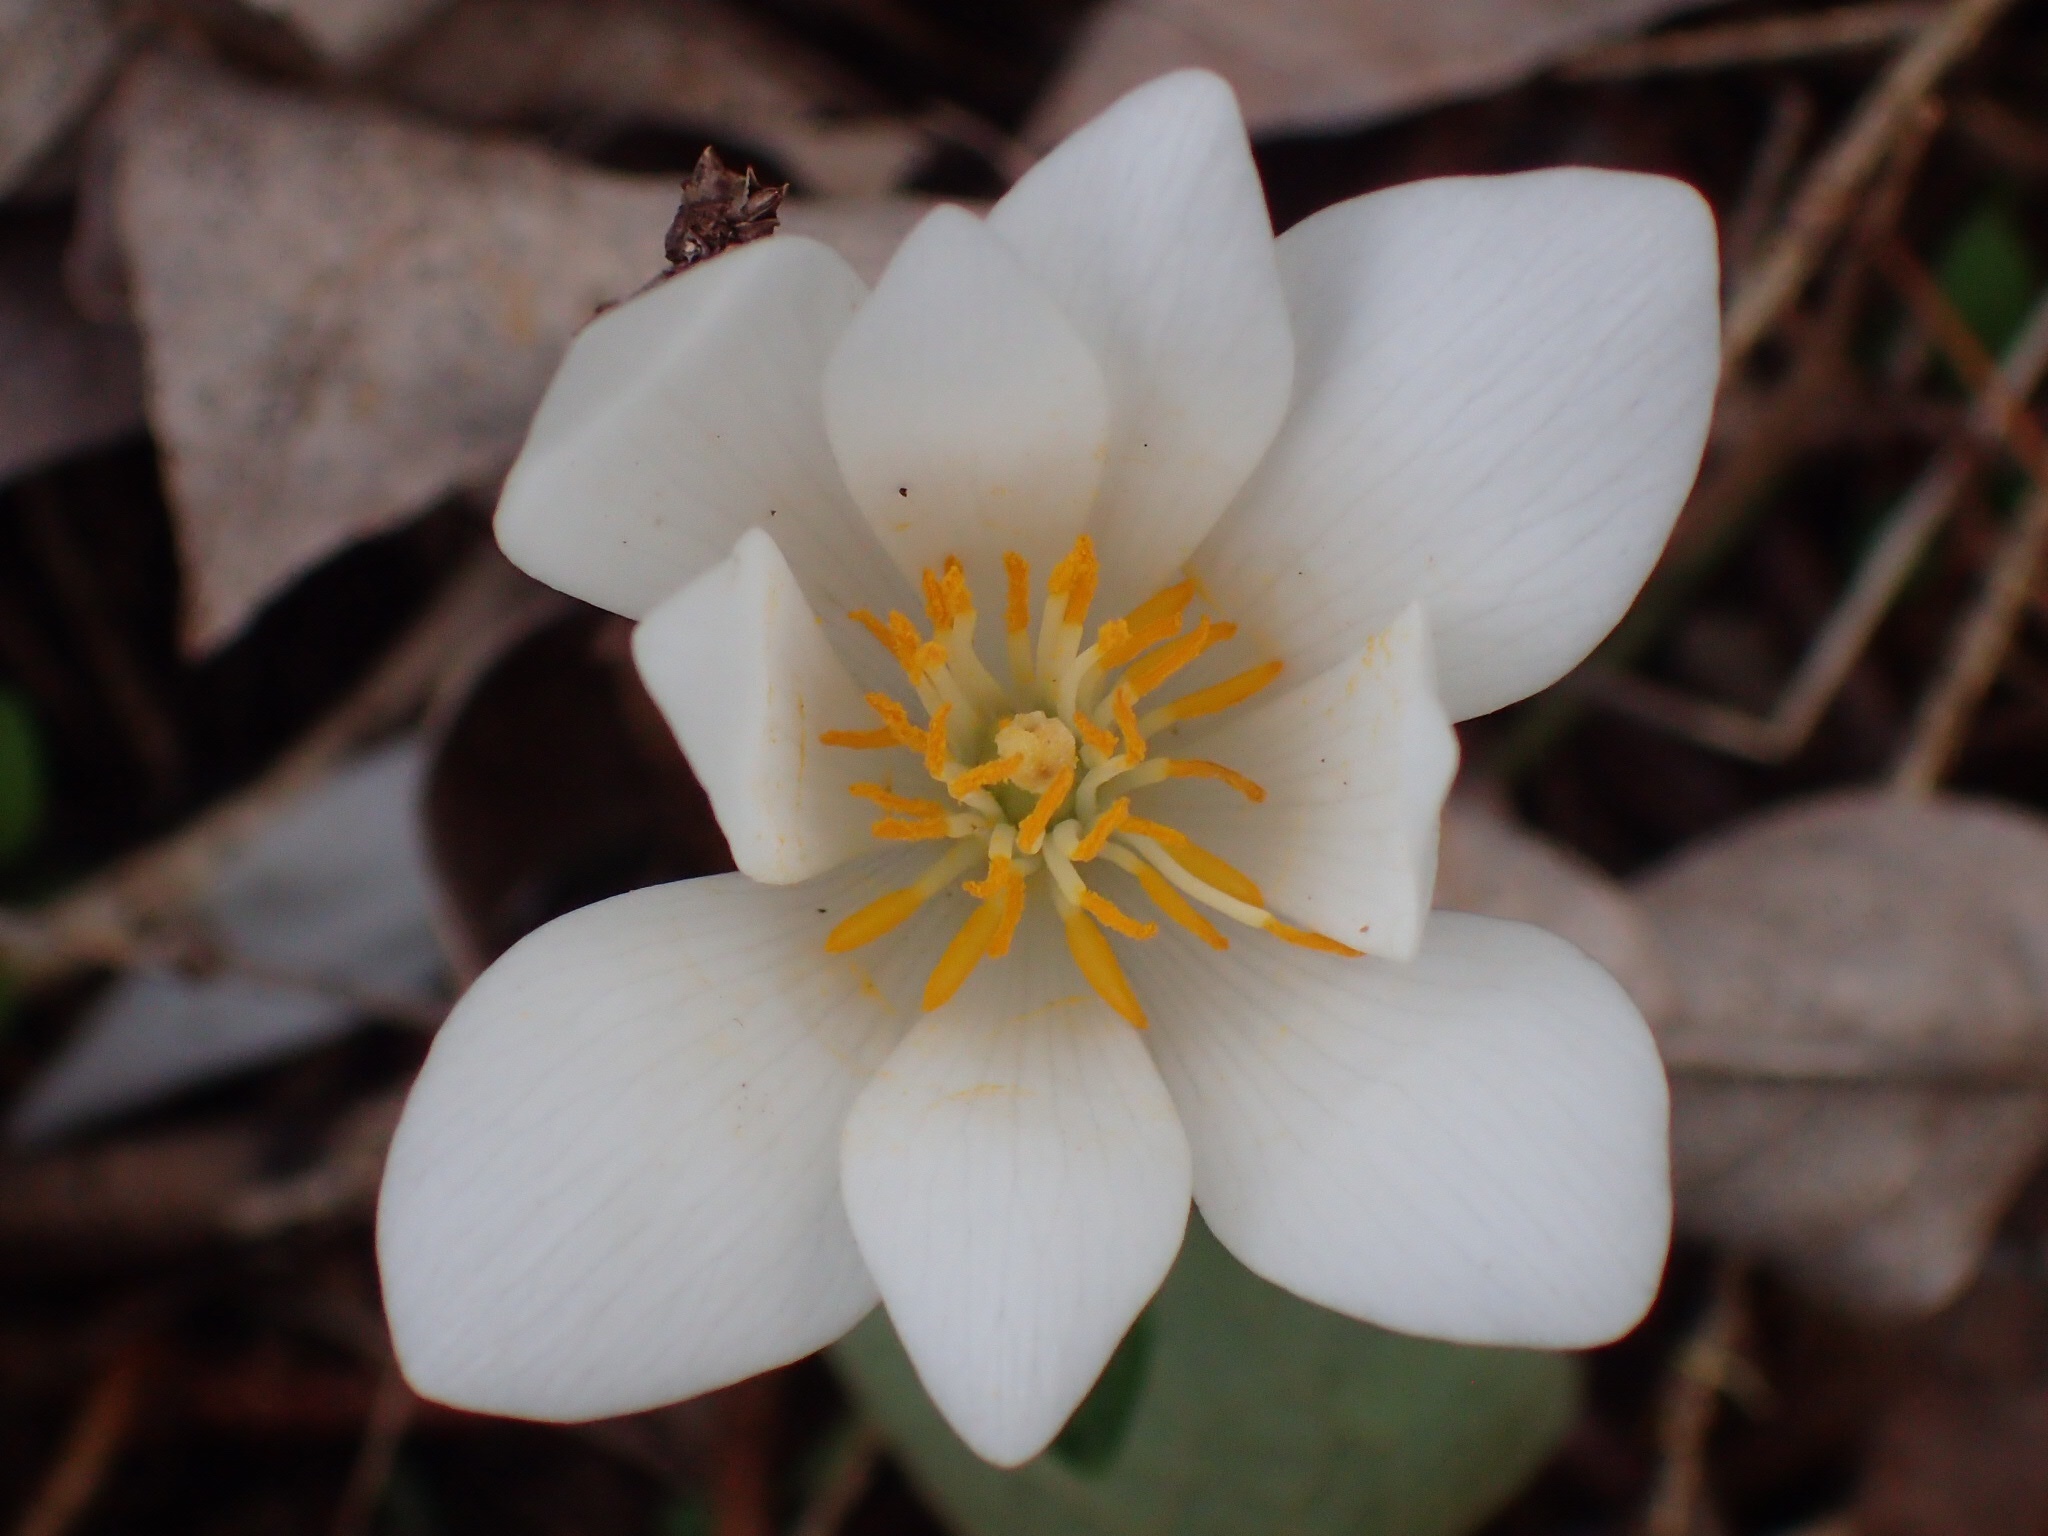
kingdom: Plantae
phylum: Tracheophyta
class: Magnoliopsida
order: Ranunculales
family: Papaveraceae
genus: Sanguinaria
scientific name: Sanguinaria canadensis
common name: Bloodroot
